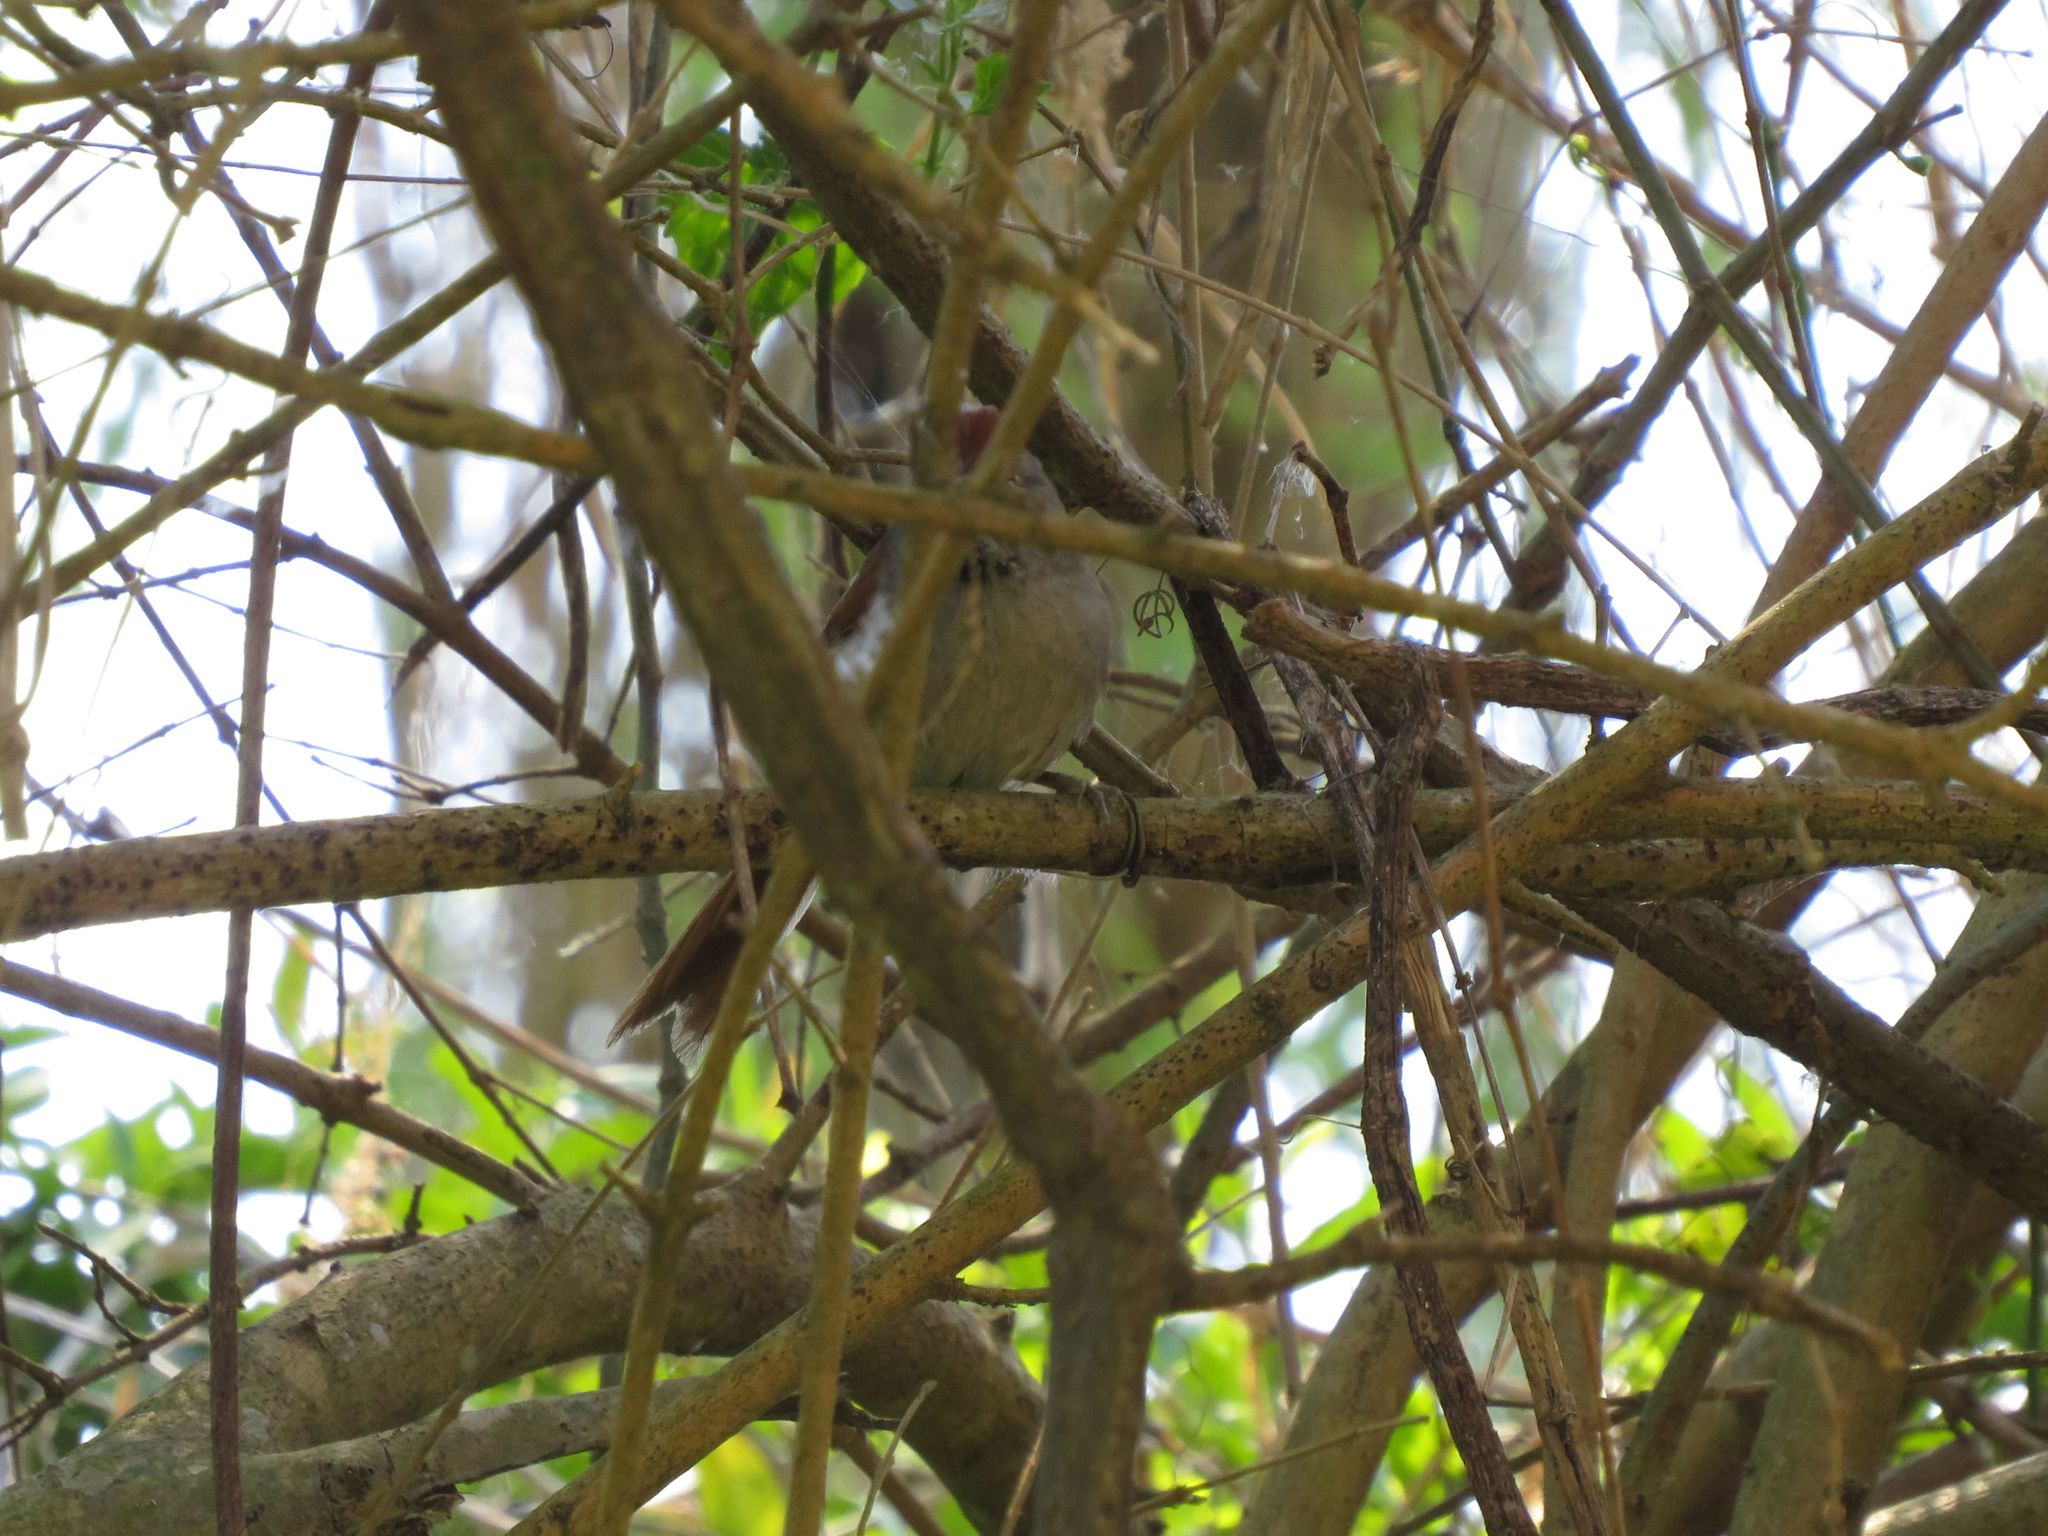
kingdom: Animalia
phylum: Chordata
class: Aves
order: Passeriformes
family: Furnariidae
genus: Synallaxis
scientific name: Synallaxis frontalis
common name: Sooty-fronted spinetail
